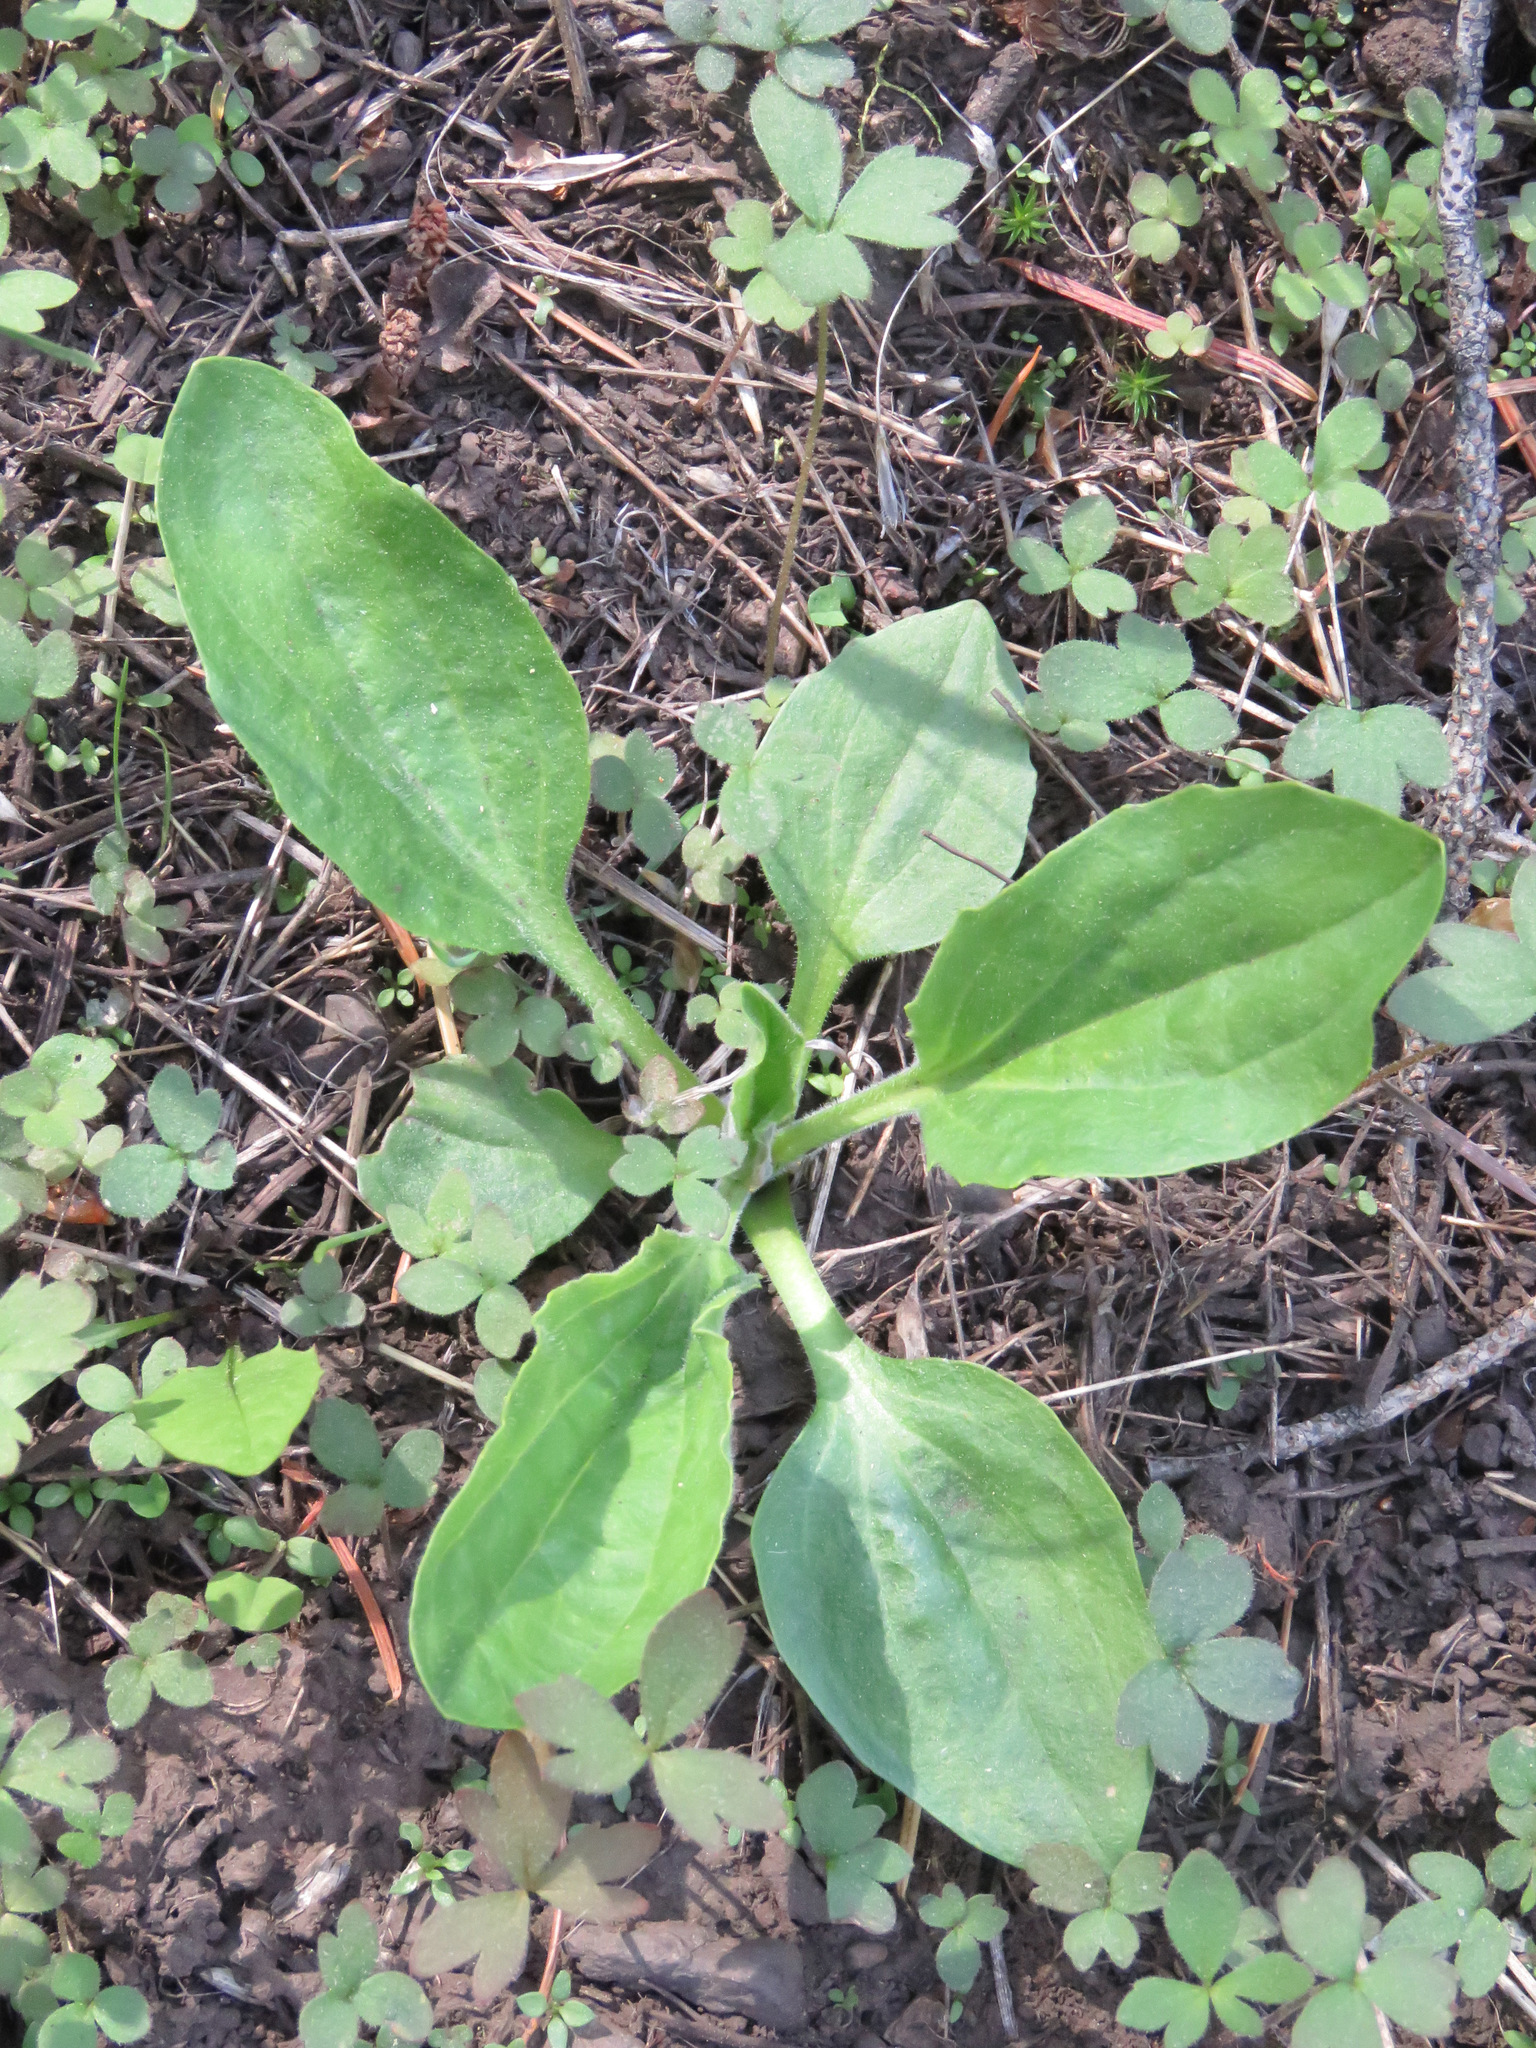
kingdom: Plantae
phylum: Tracheophyta
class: Magnoliopsida
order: Lamiales
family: Plantaginaceae
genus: Plantago
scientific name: Plantago major
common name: Common plantain
